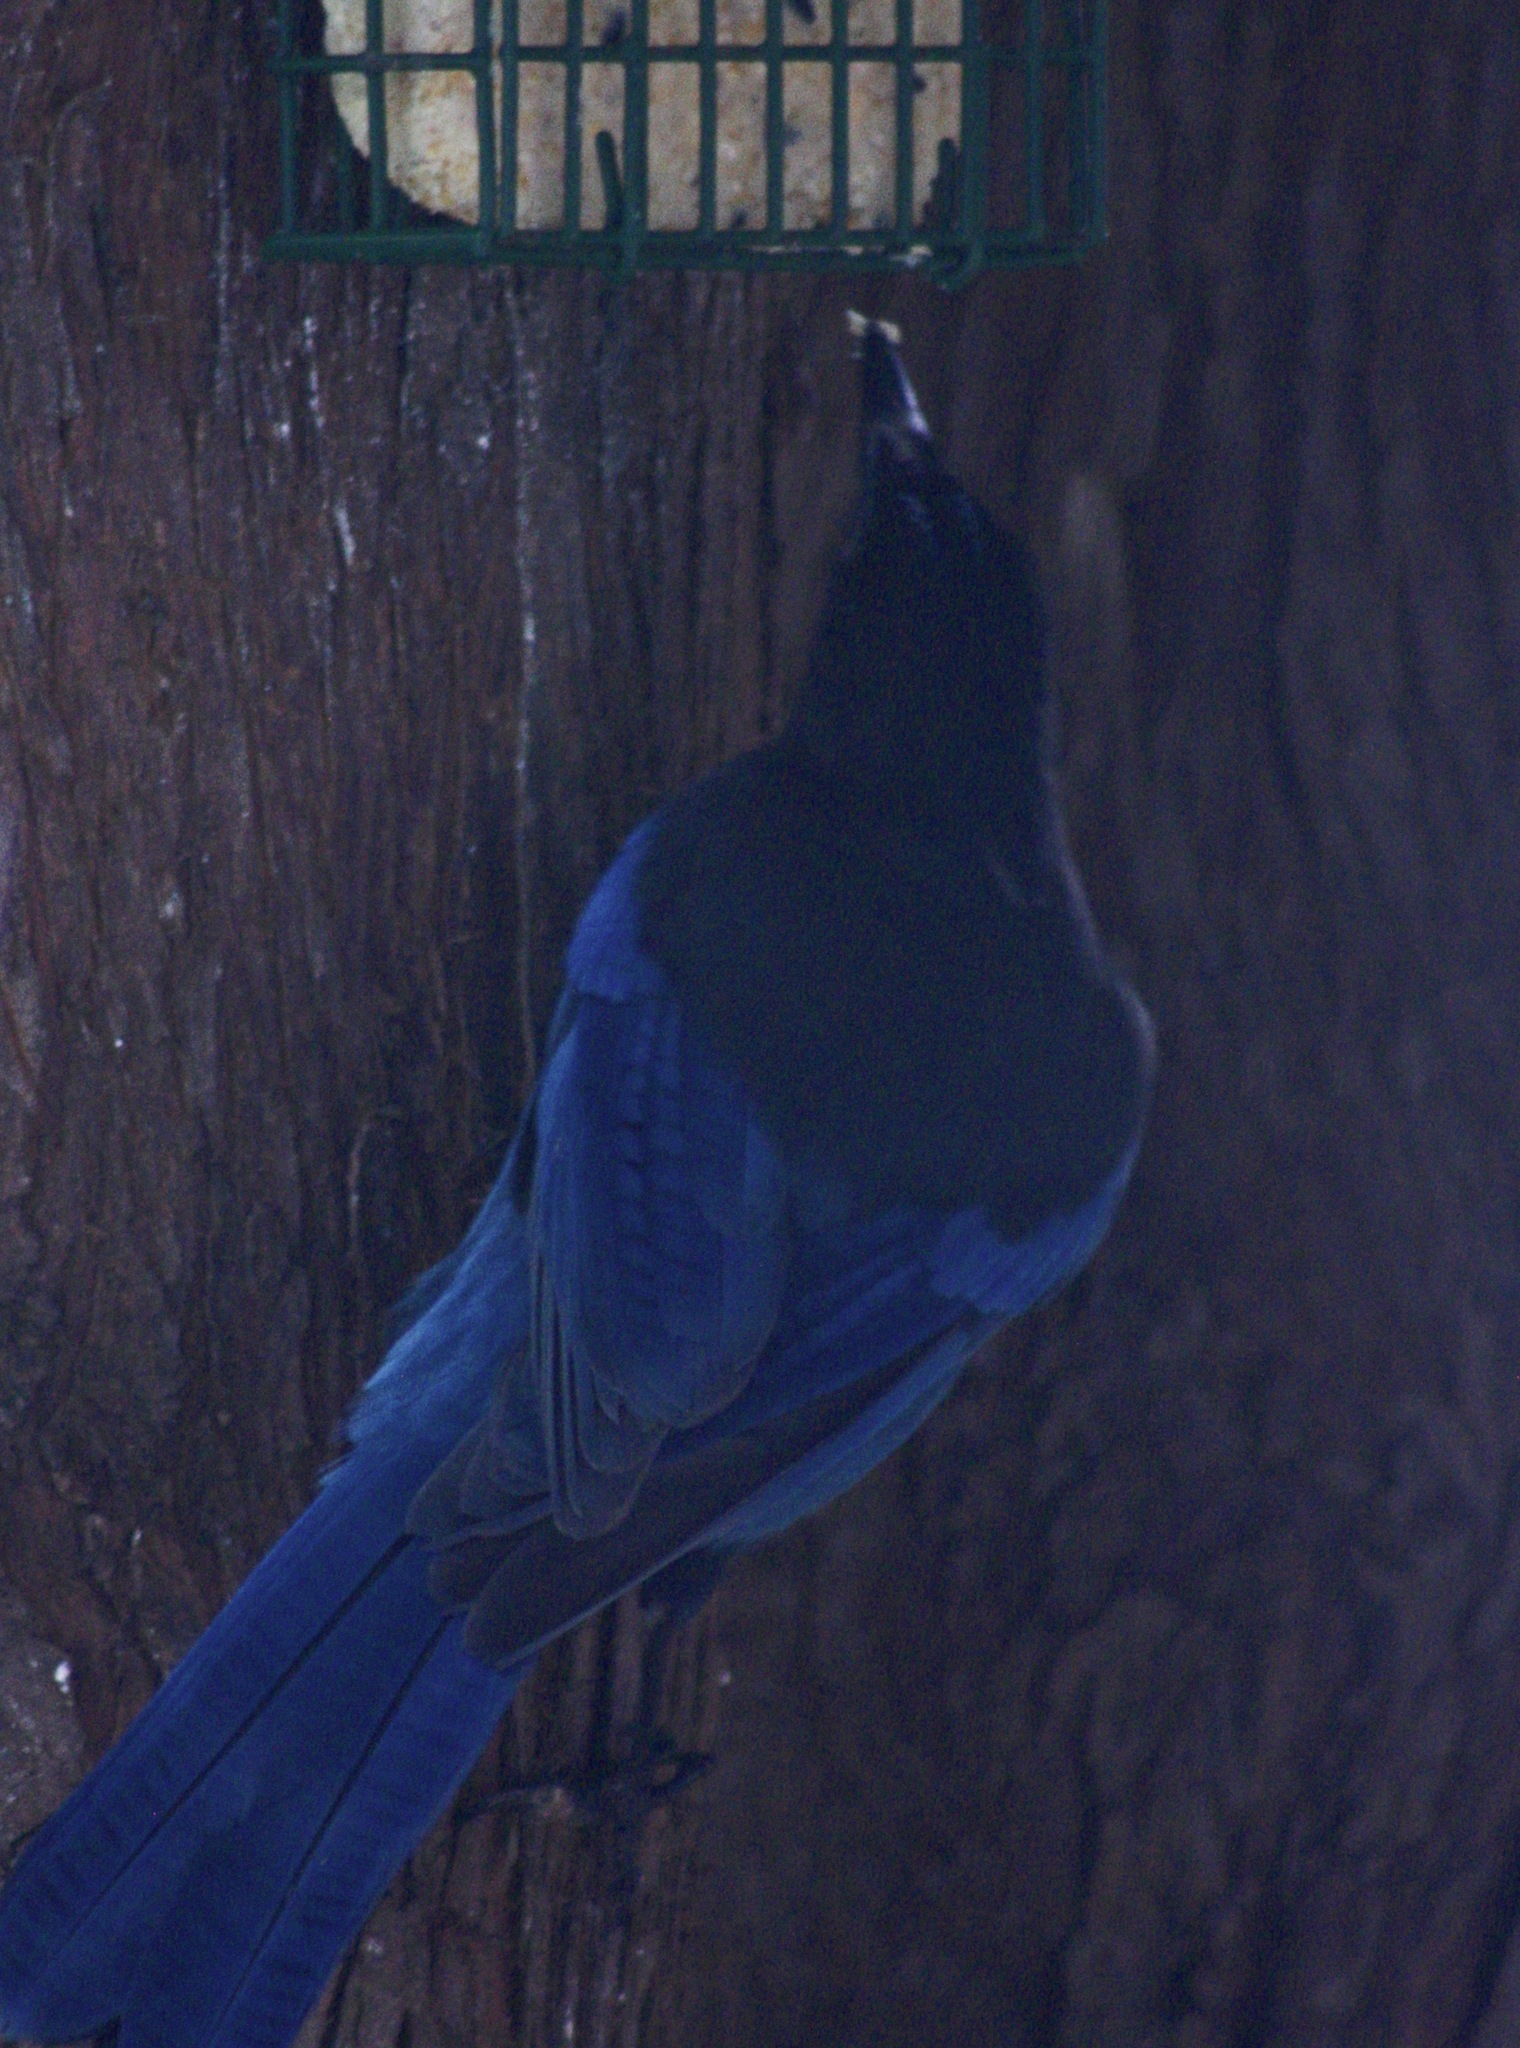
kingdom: Animalia
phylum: Chordata
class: Aves
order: Passeriformes
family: Corvidae
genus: Cyanocitta
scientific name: Cyanocitta stelleri
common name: Steller's jay
